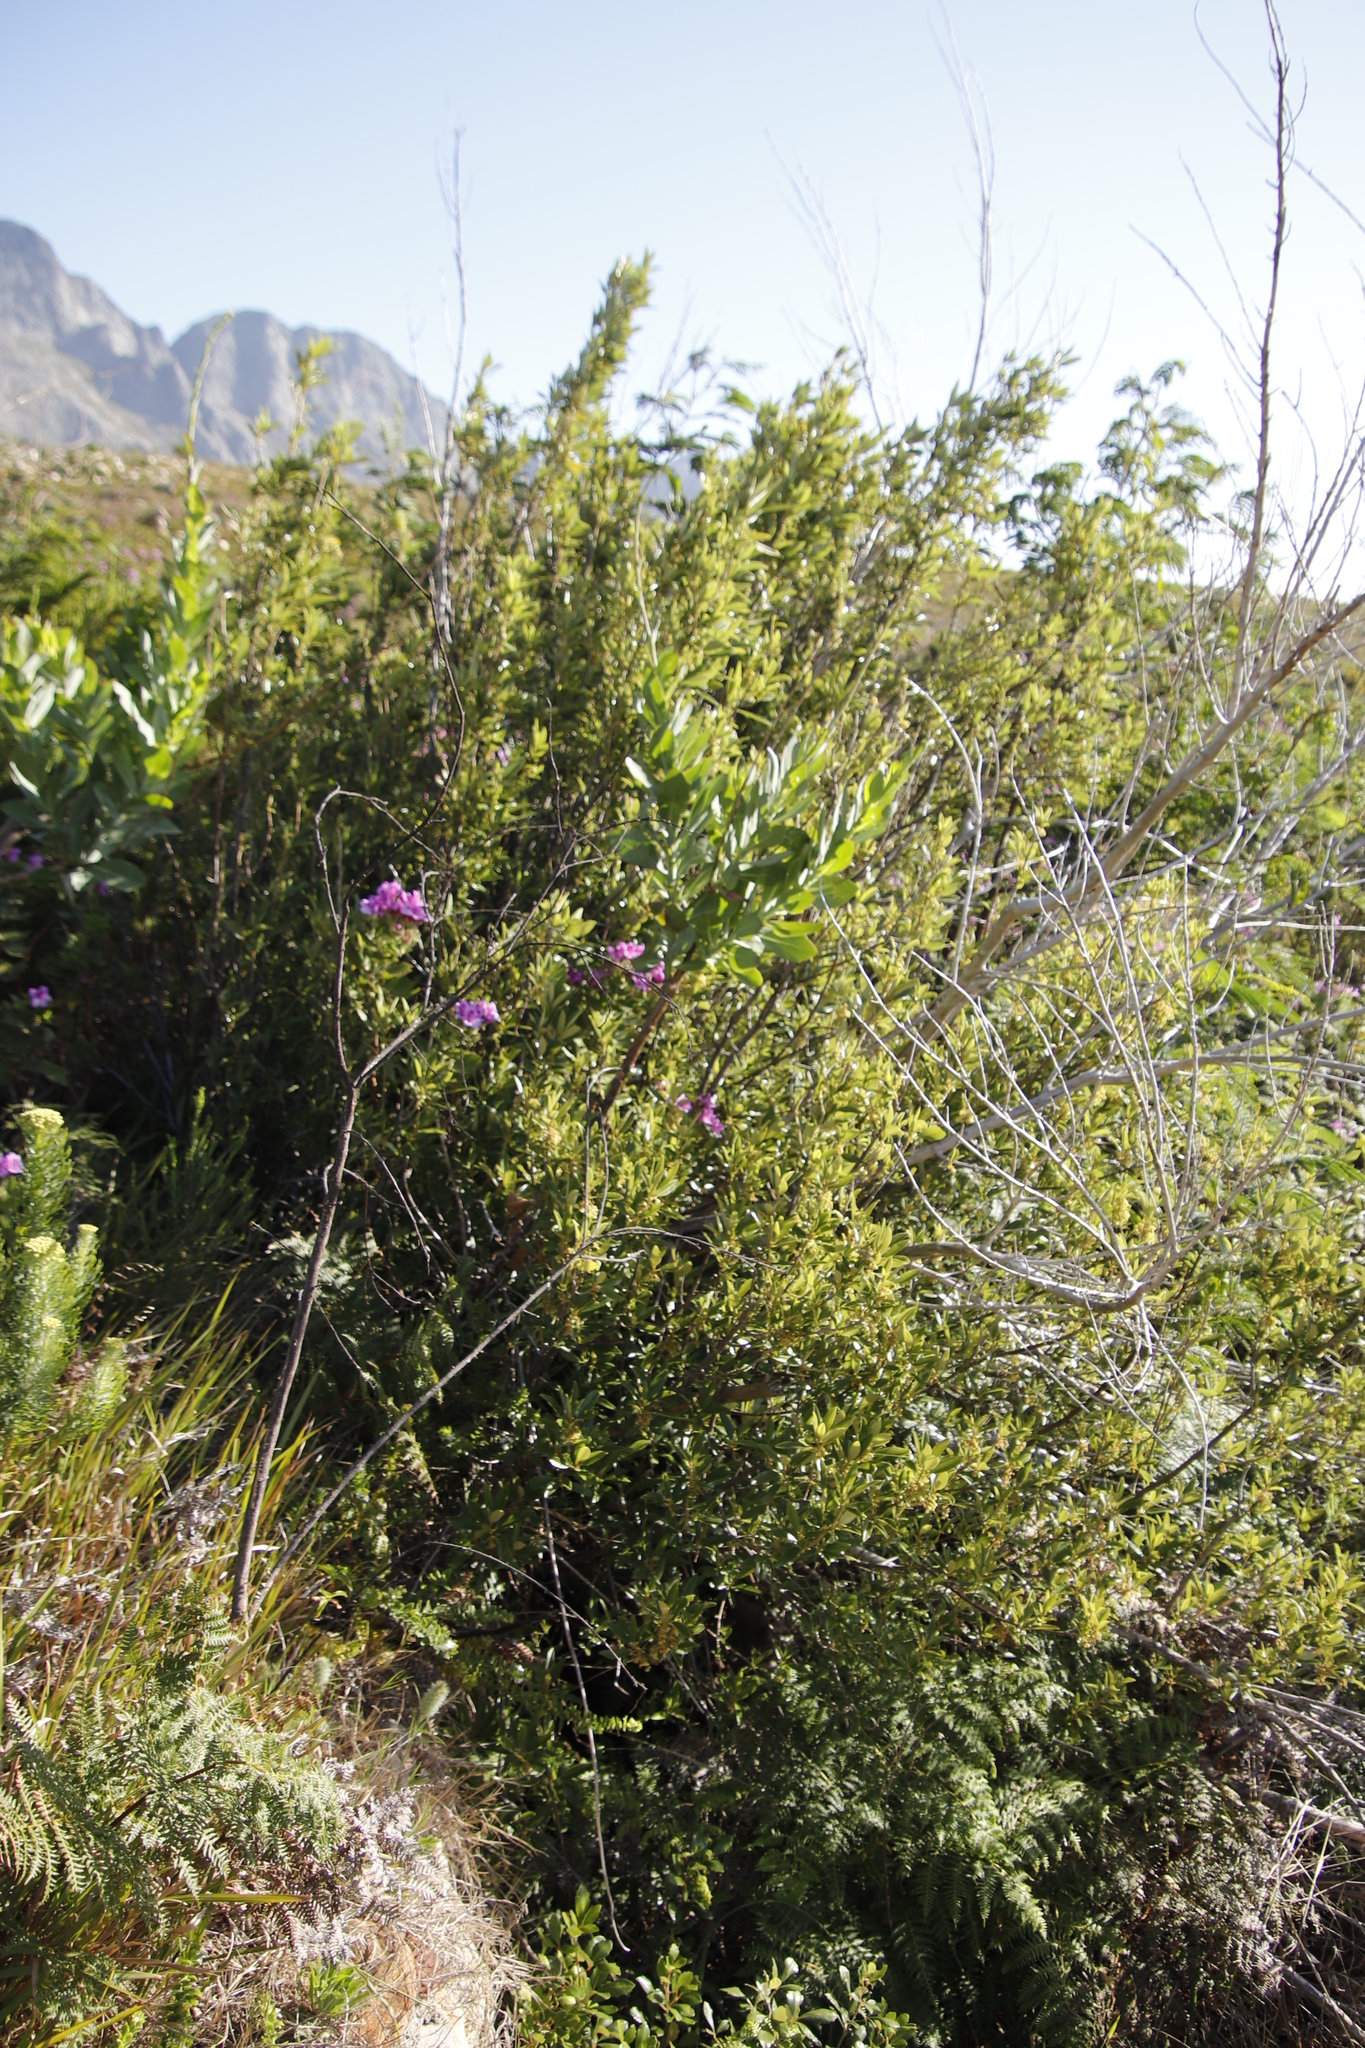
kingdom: Plantae
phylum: Tracheophyta
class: Magnoliopsida
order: Asterales
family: Asteraceae
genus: Othonna
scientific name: Othonna quinquedentata
